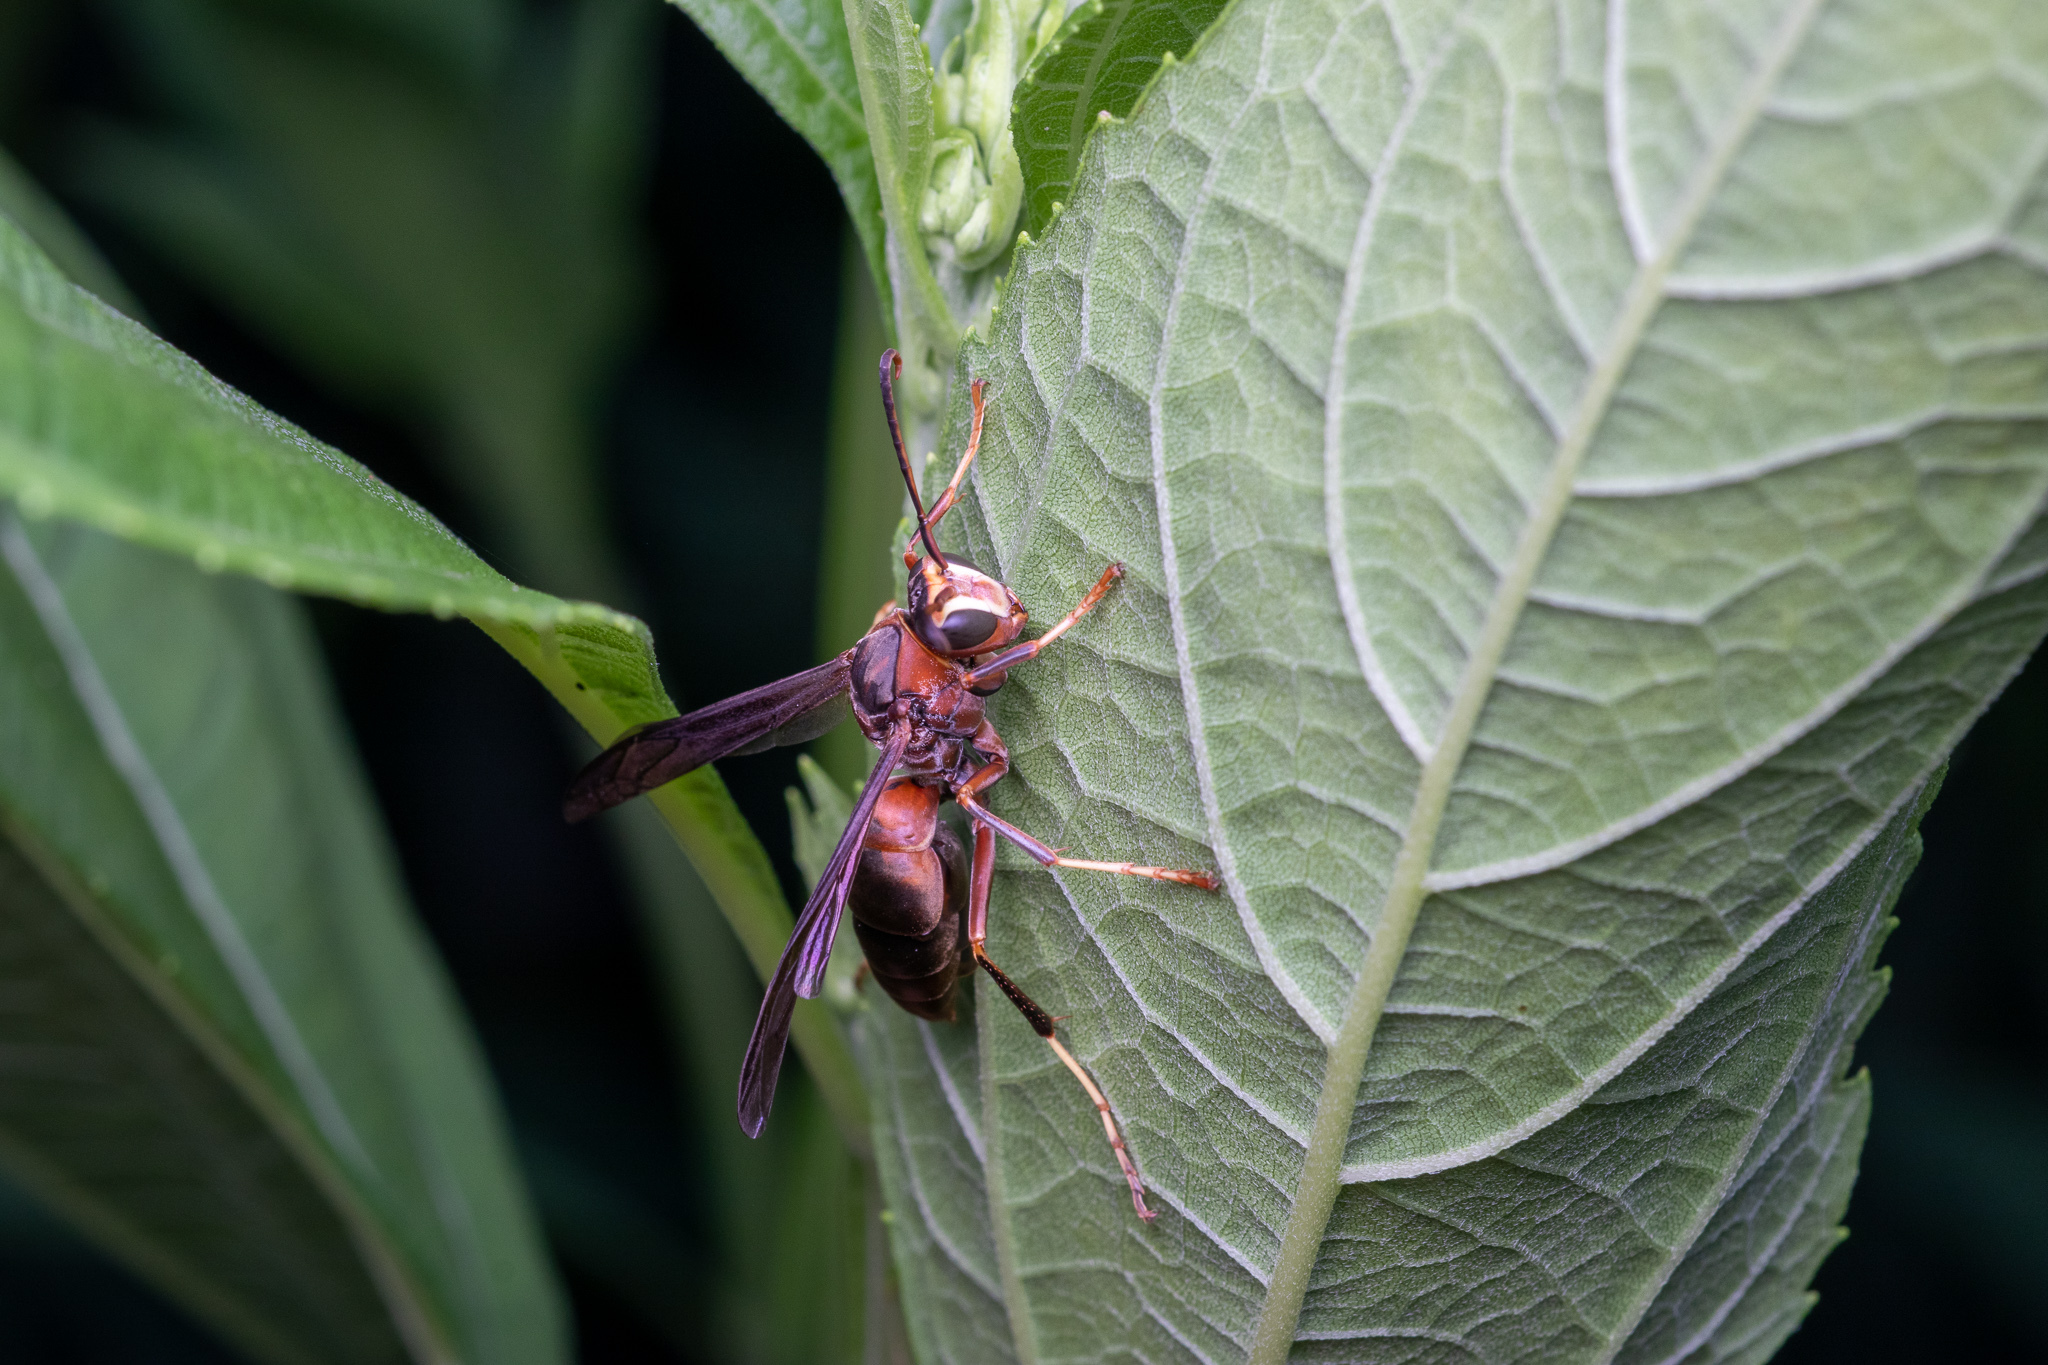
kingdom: Animalia
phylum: Arthropoda
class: Insecta
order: Hymenoptera
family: Eumenidae
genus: Polistes
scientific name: Polistes metricus
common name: Metric paper wasp
